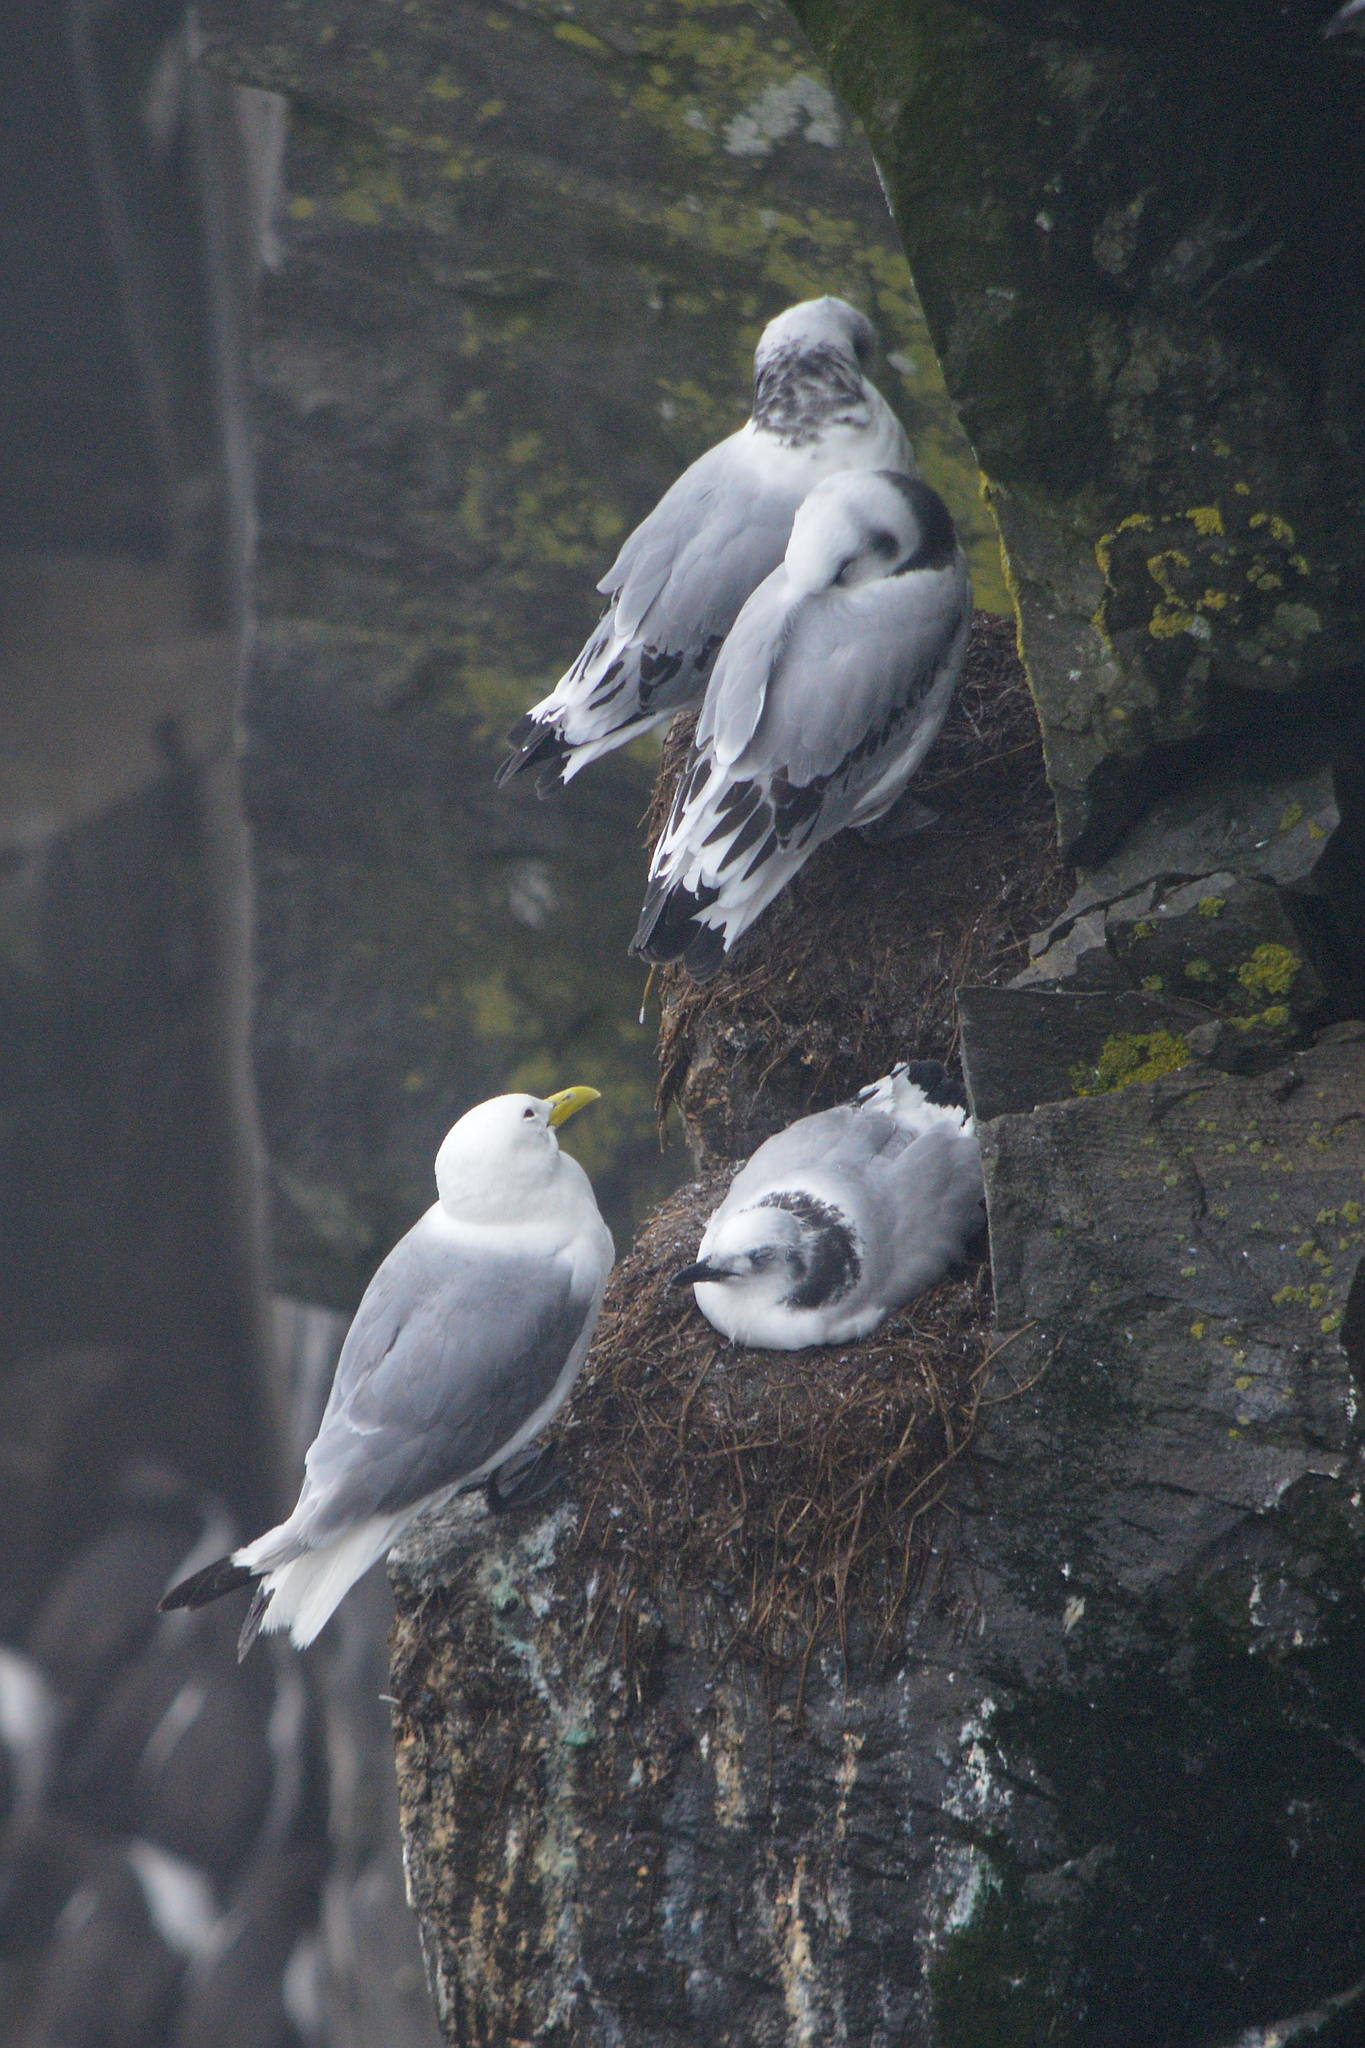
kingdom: Animalia
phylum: Chordata
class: Aves
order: Charadriiformes
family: Laridae
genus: Rissa
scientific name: Rissa tridactyla
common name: Black-legged kittiwake
